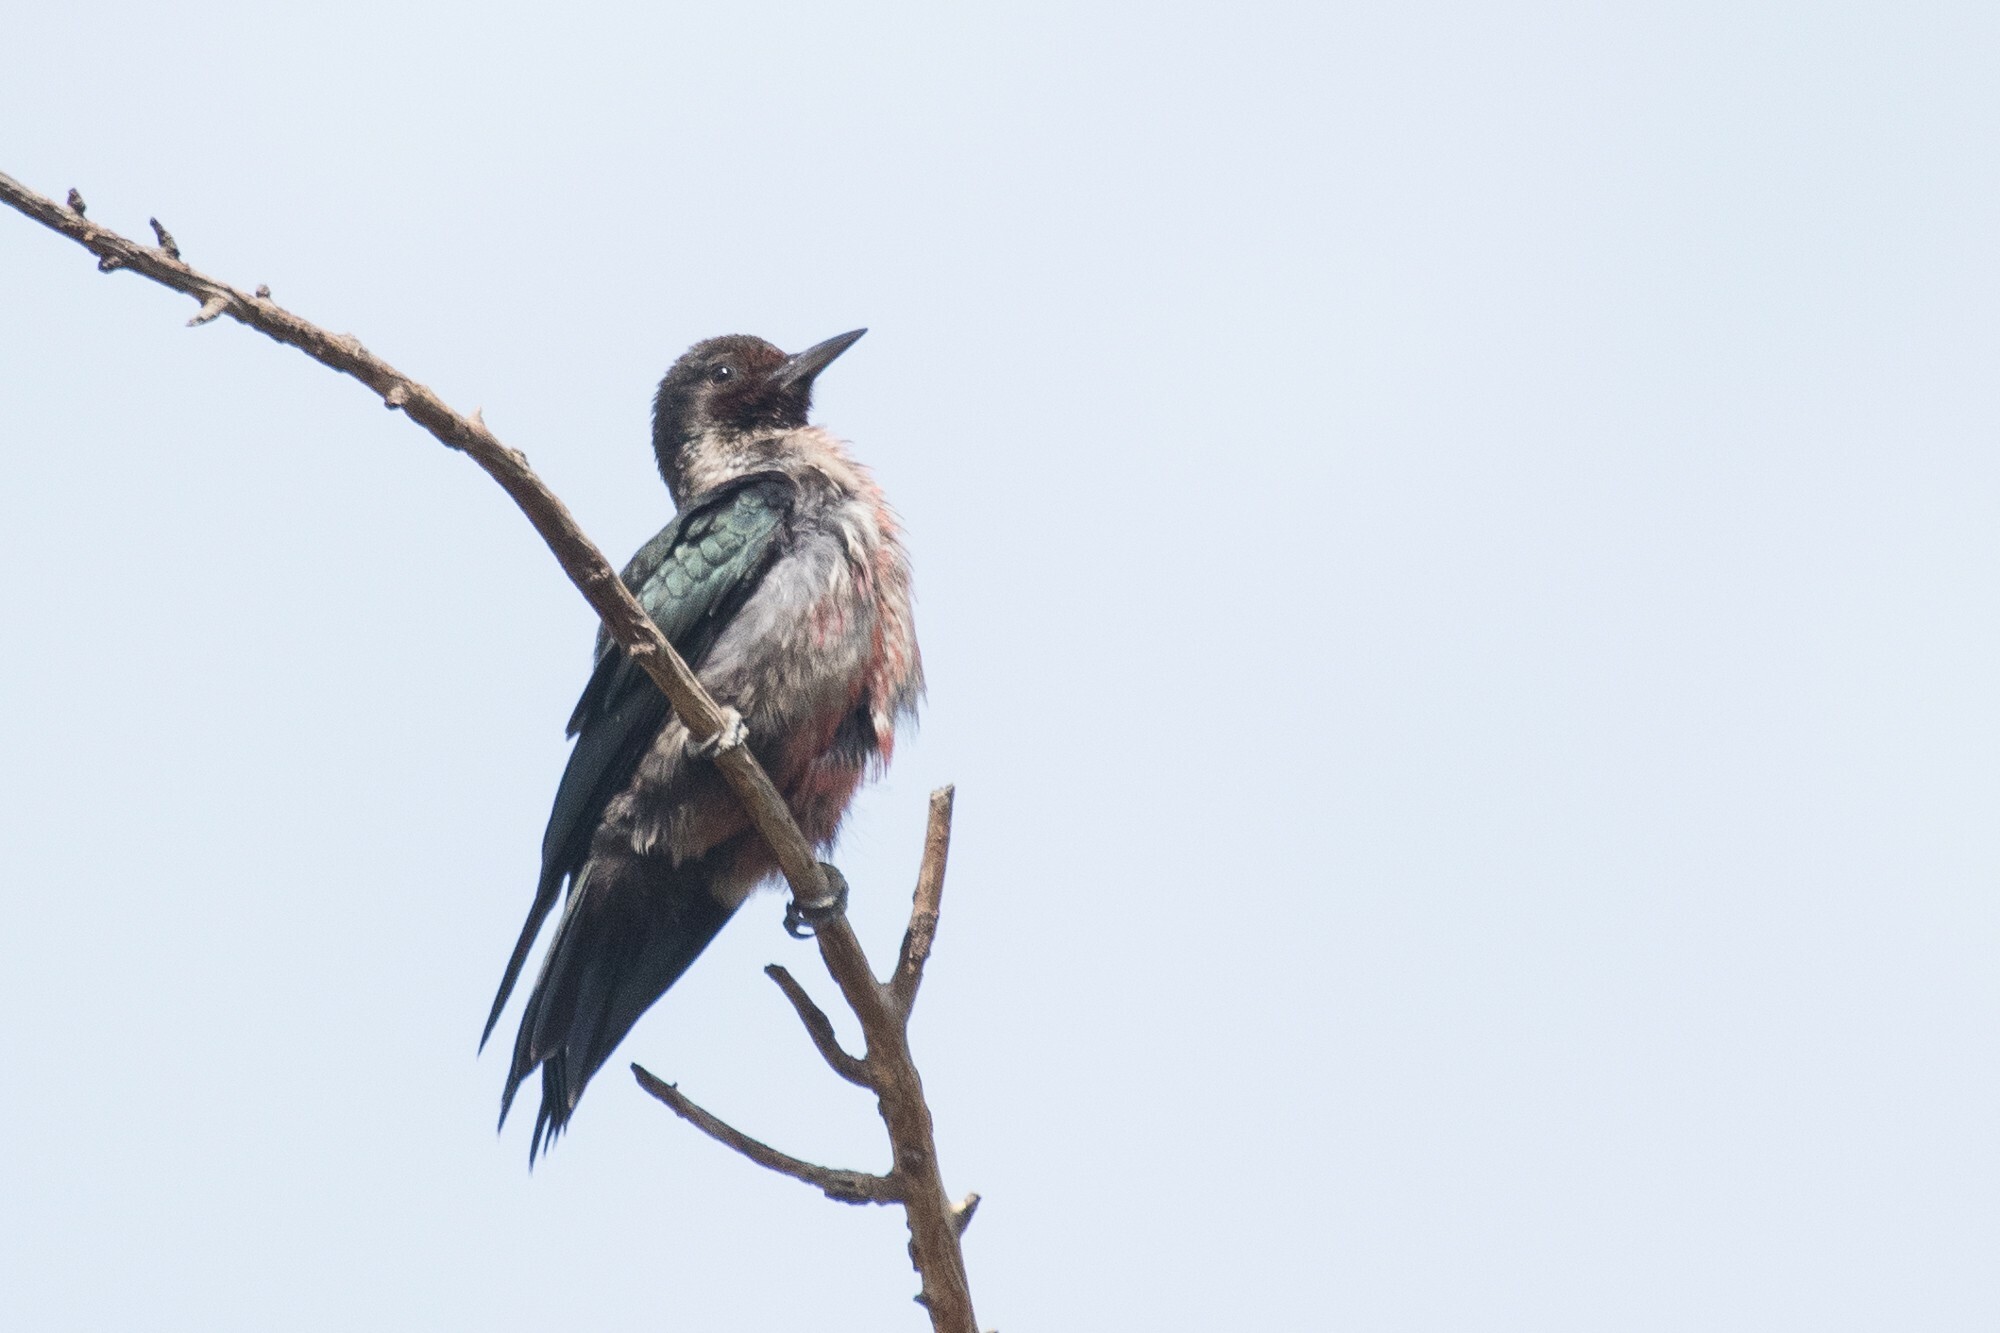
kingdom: Animalia
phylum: Chordata
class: Aves
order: Piciformes
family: Picidae
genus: Melanerpes
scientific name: Melanerpes lewis
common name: Lewis's woodpecker
